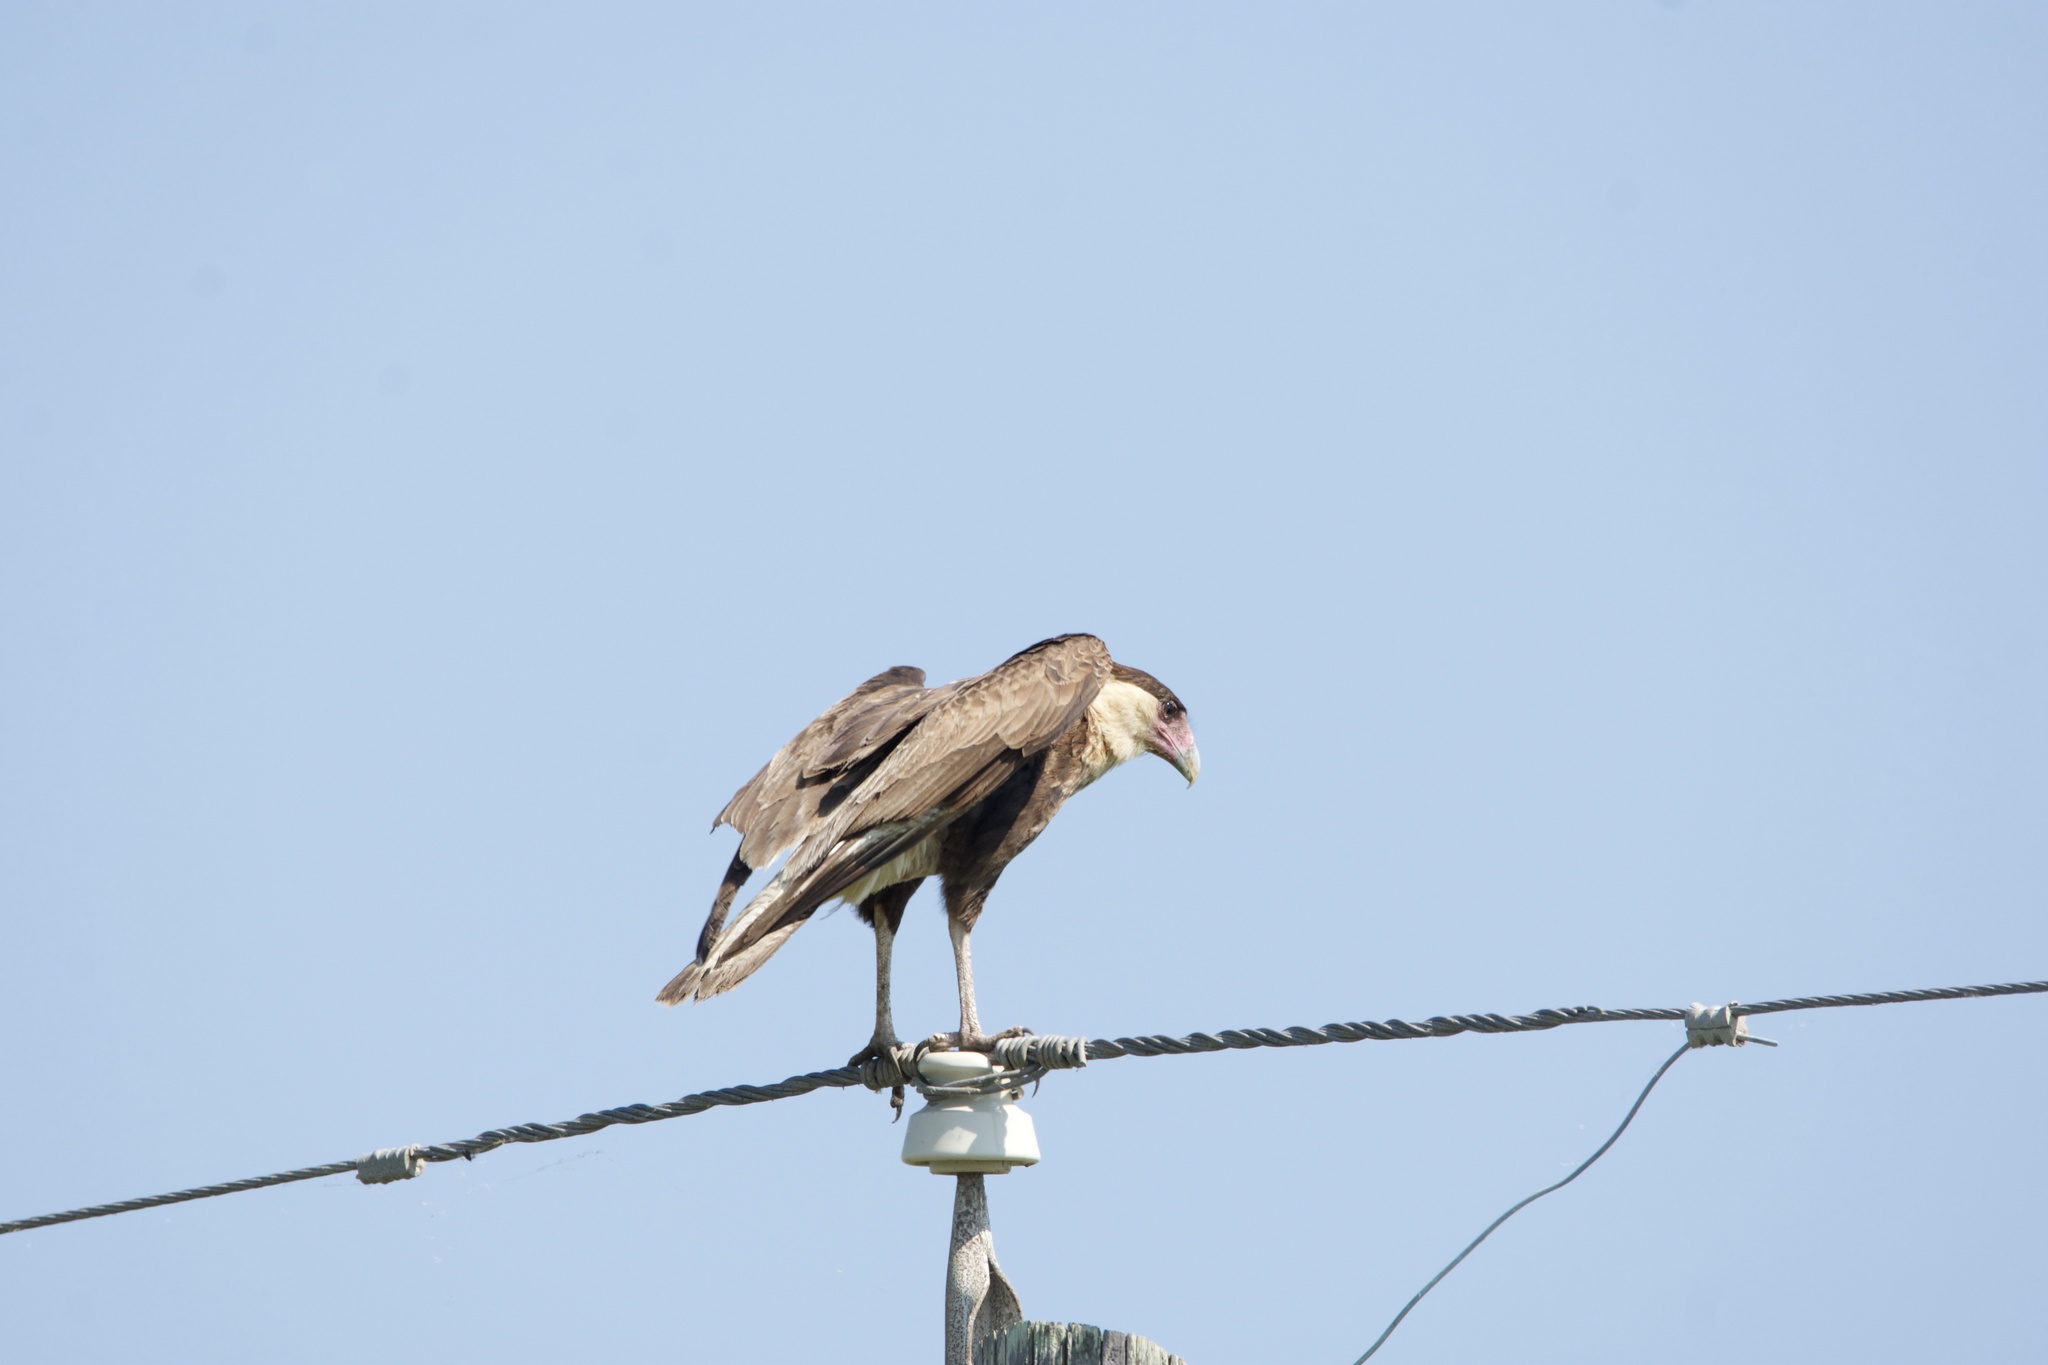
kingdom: Animalia
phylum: Chordata
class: Aves
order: Falconiformes
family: Falconidae
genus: Caracara
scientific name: Caracara plancus
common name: Southern caracara
